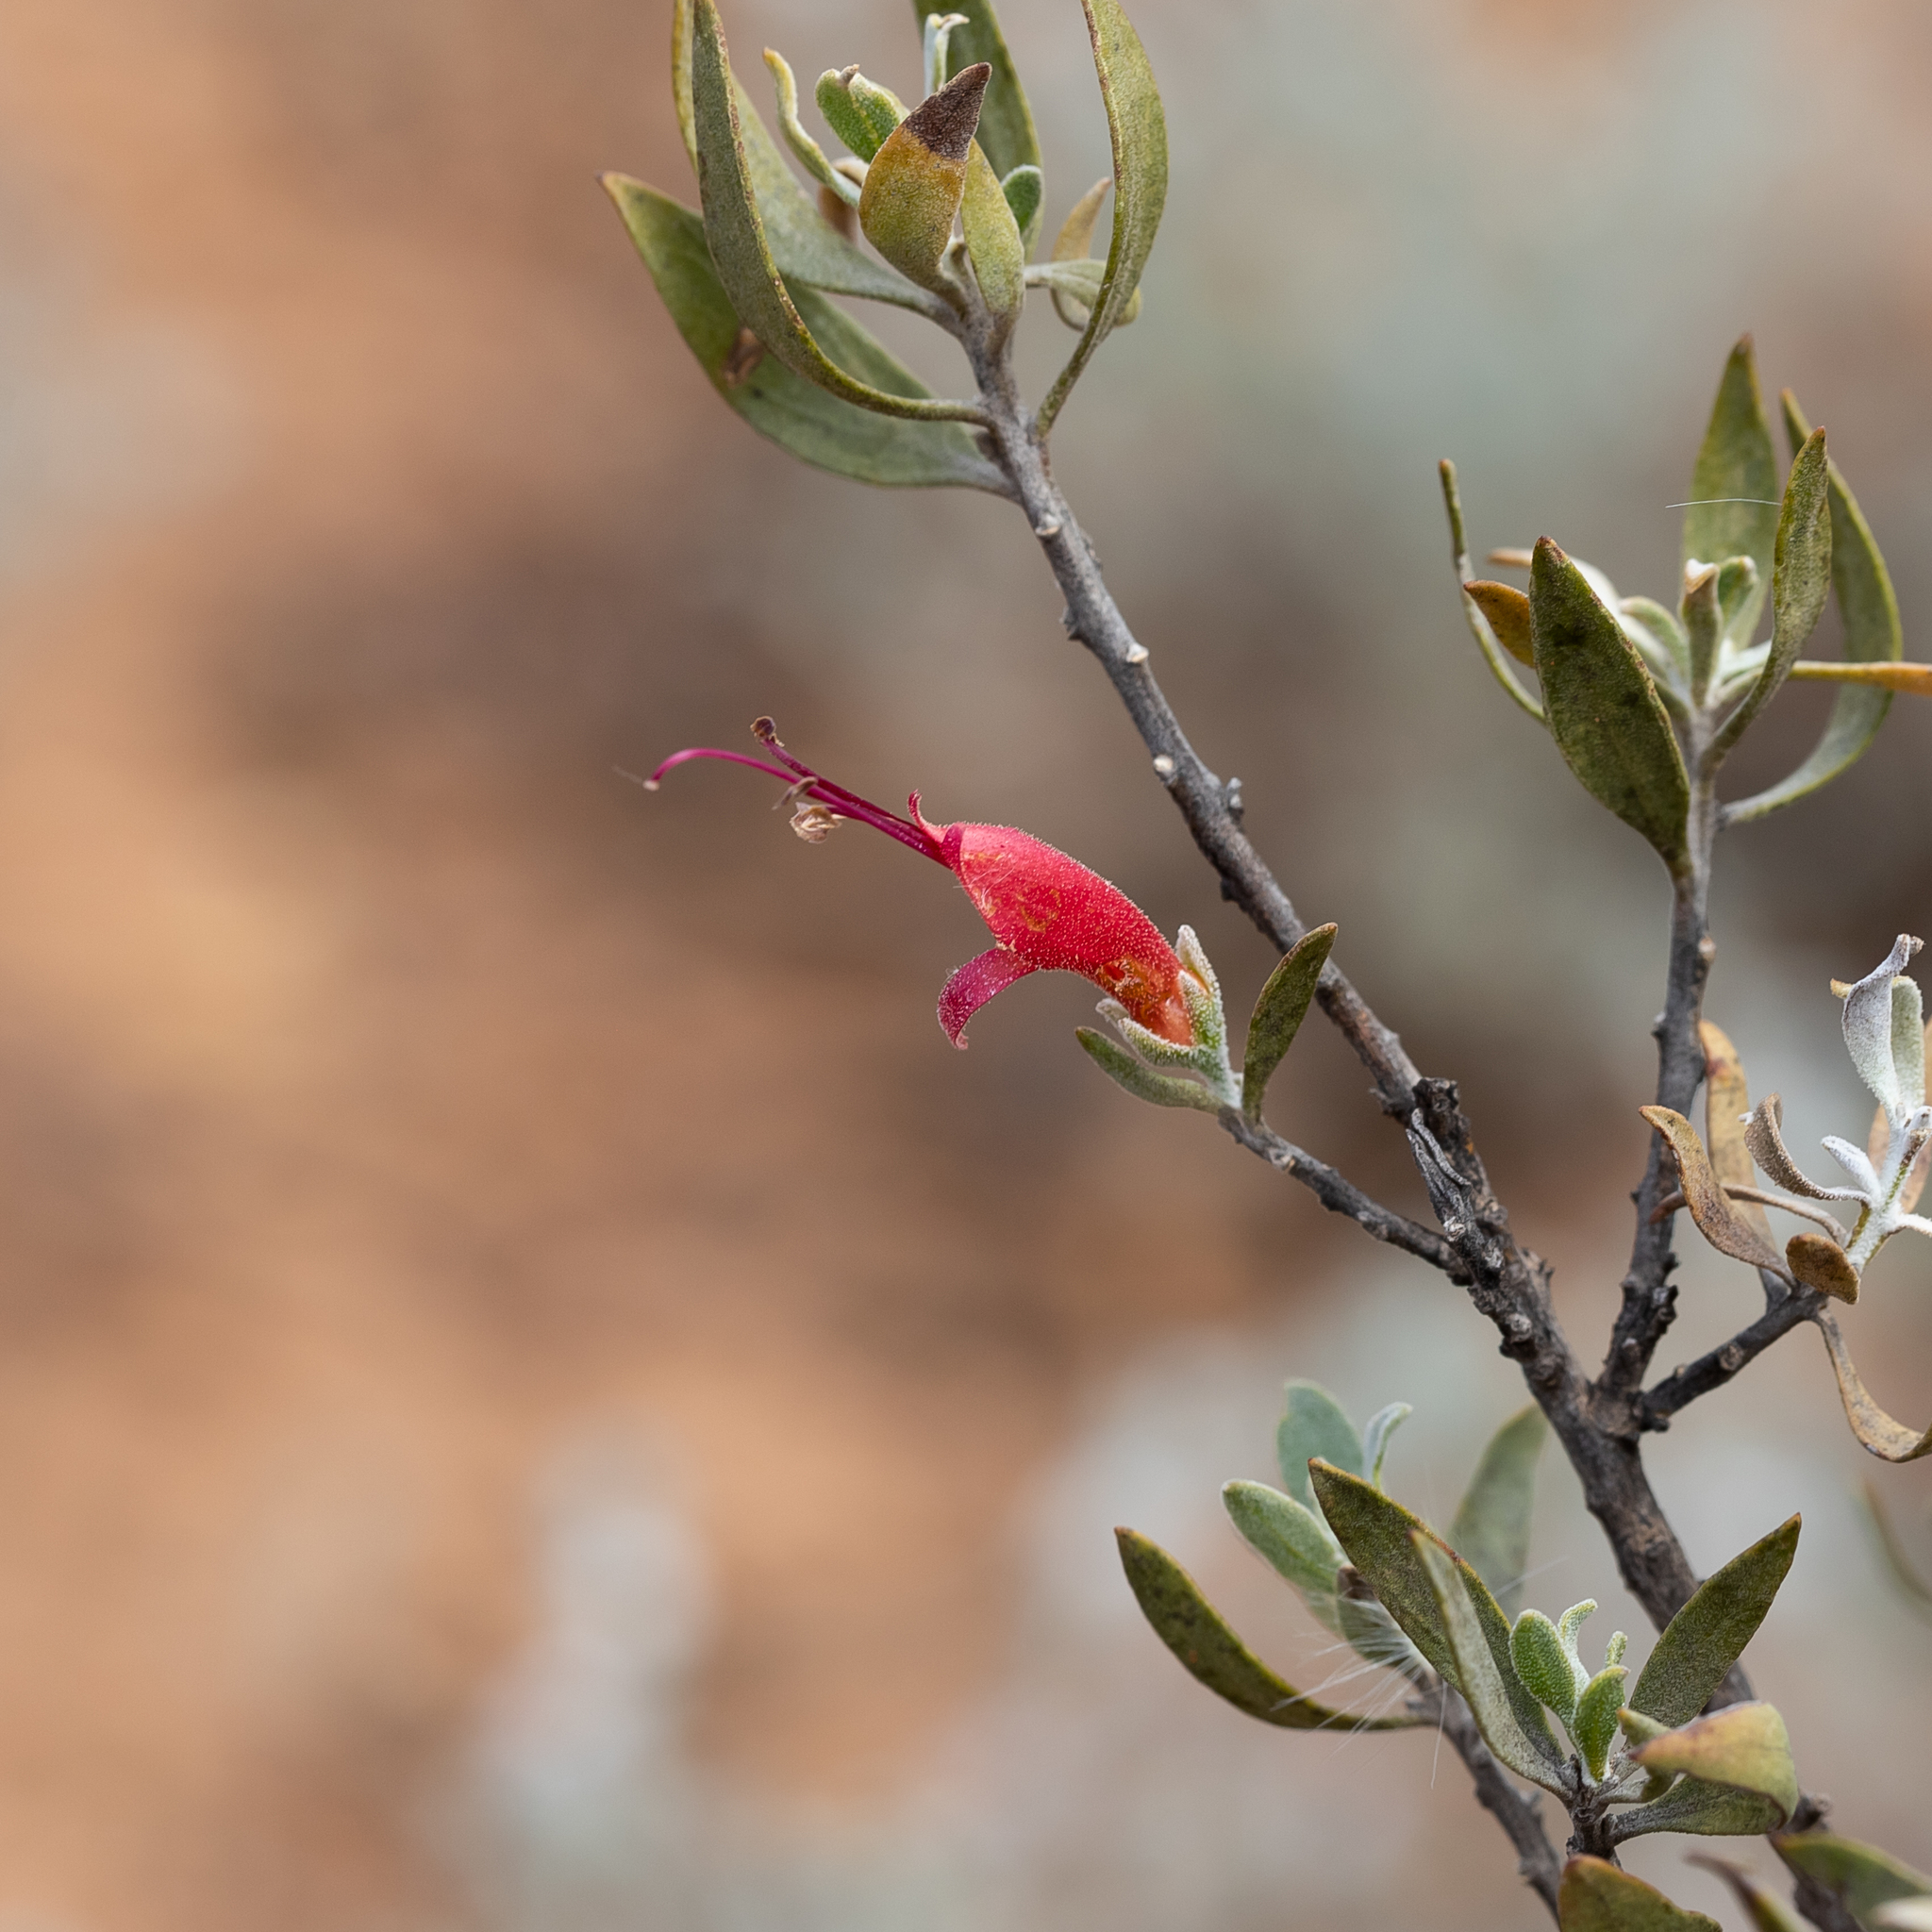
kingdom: Plantae
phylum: Tracheophyta
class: Magnoliopsida
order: Lamiales
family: Scrophulariaceae
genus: Eremophila
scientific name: Eremophila glabra
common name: Black-fuchsia
